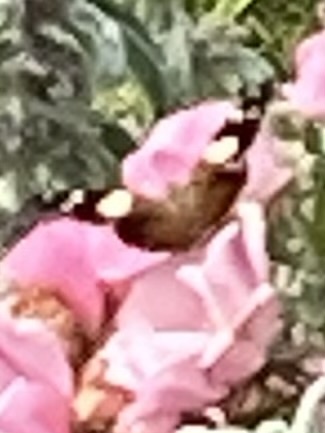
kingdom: Animalia
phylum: Arthropoda
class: Insecta
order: Lepidoptera
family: Nymphalidae
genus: Vanessa
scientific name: Vanessa itea
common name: Yellow admiral
